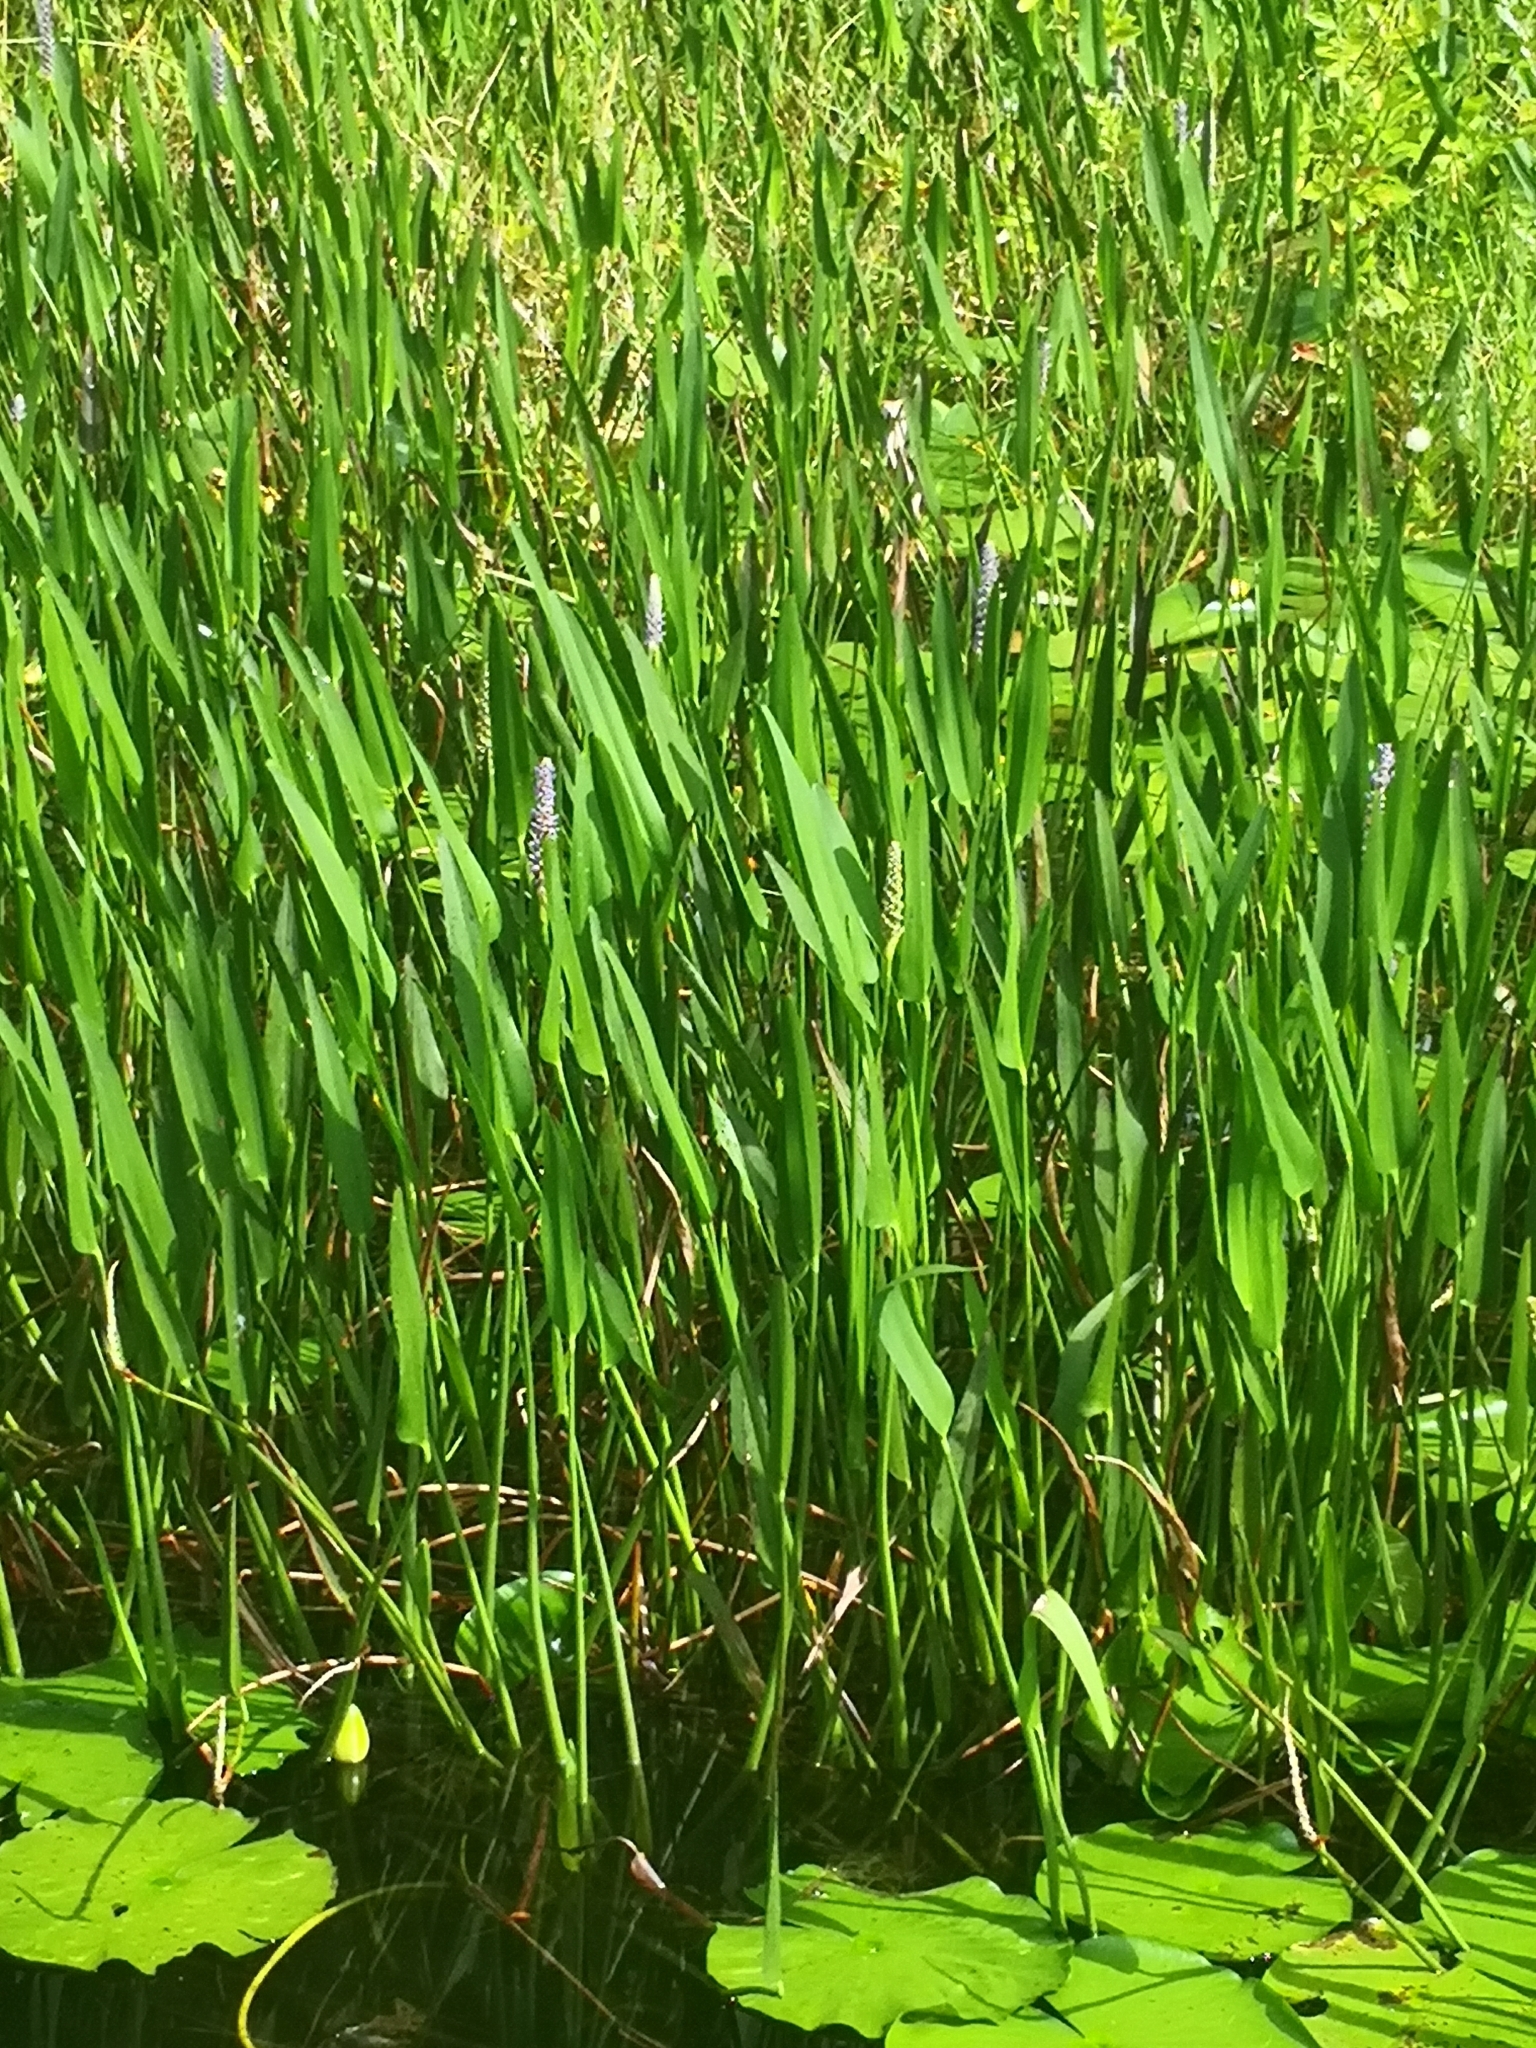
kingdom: Plantae
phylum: Tracheophyta
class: Liliopsida
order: Commelinales
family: Pontederiaceae
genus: Pontederia
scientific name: Pontederia cordata
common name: Pickerelweed
